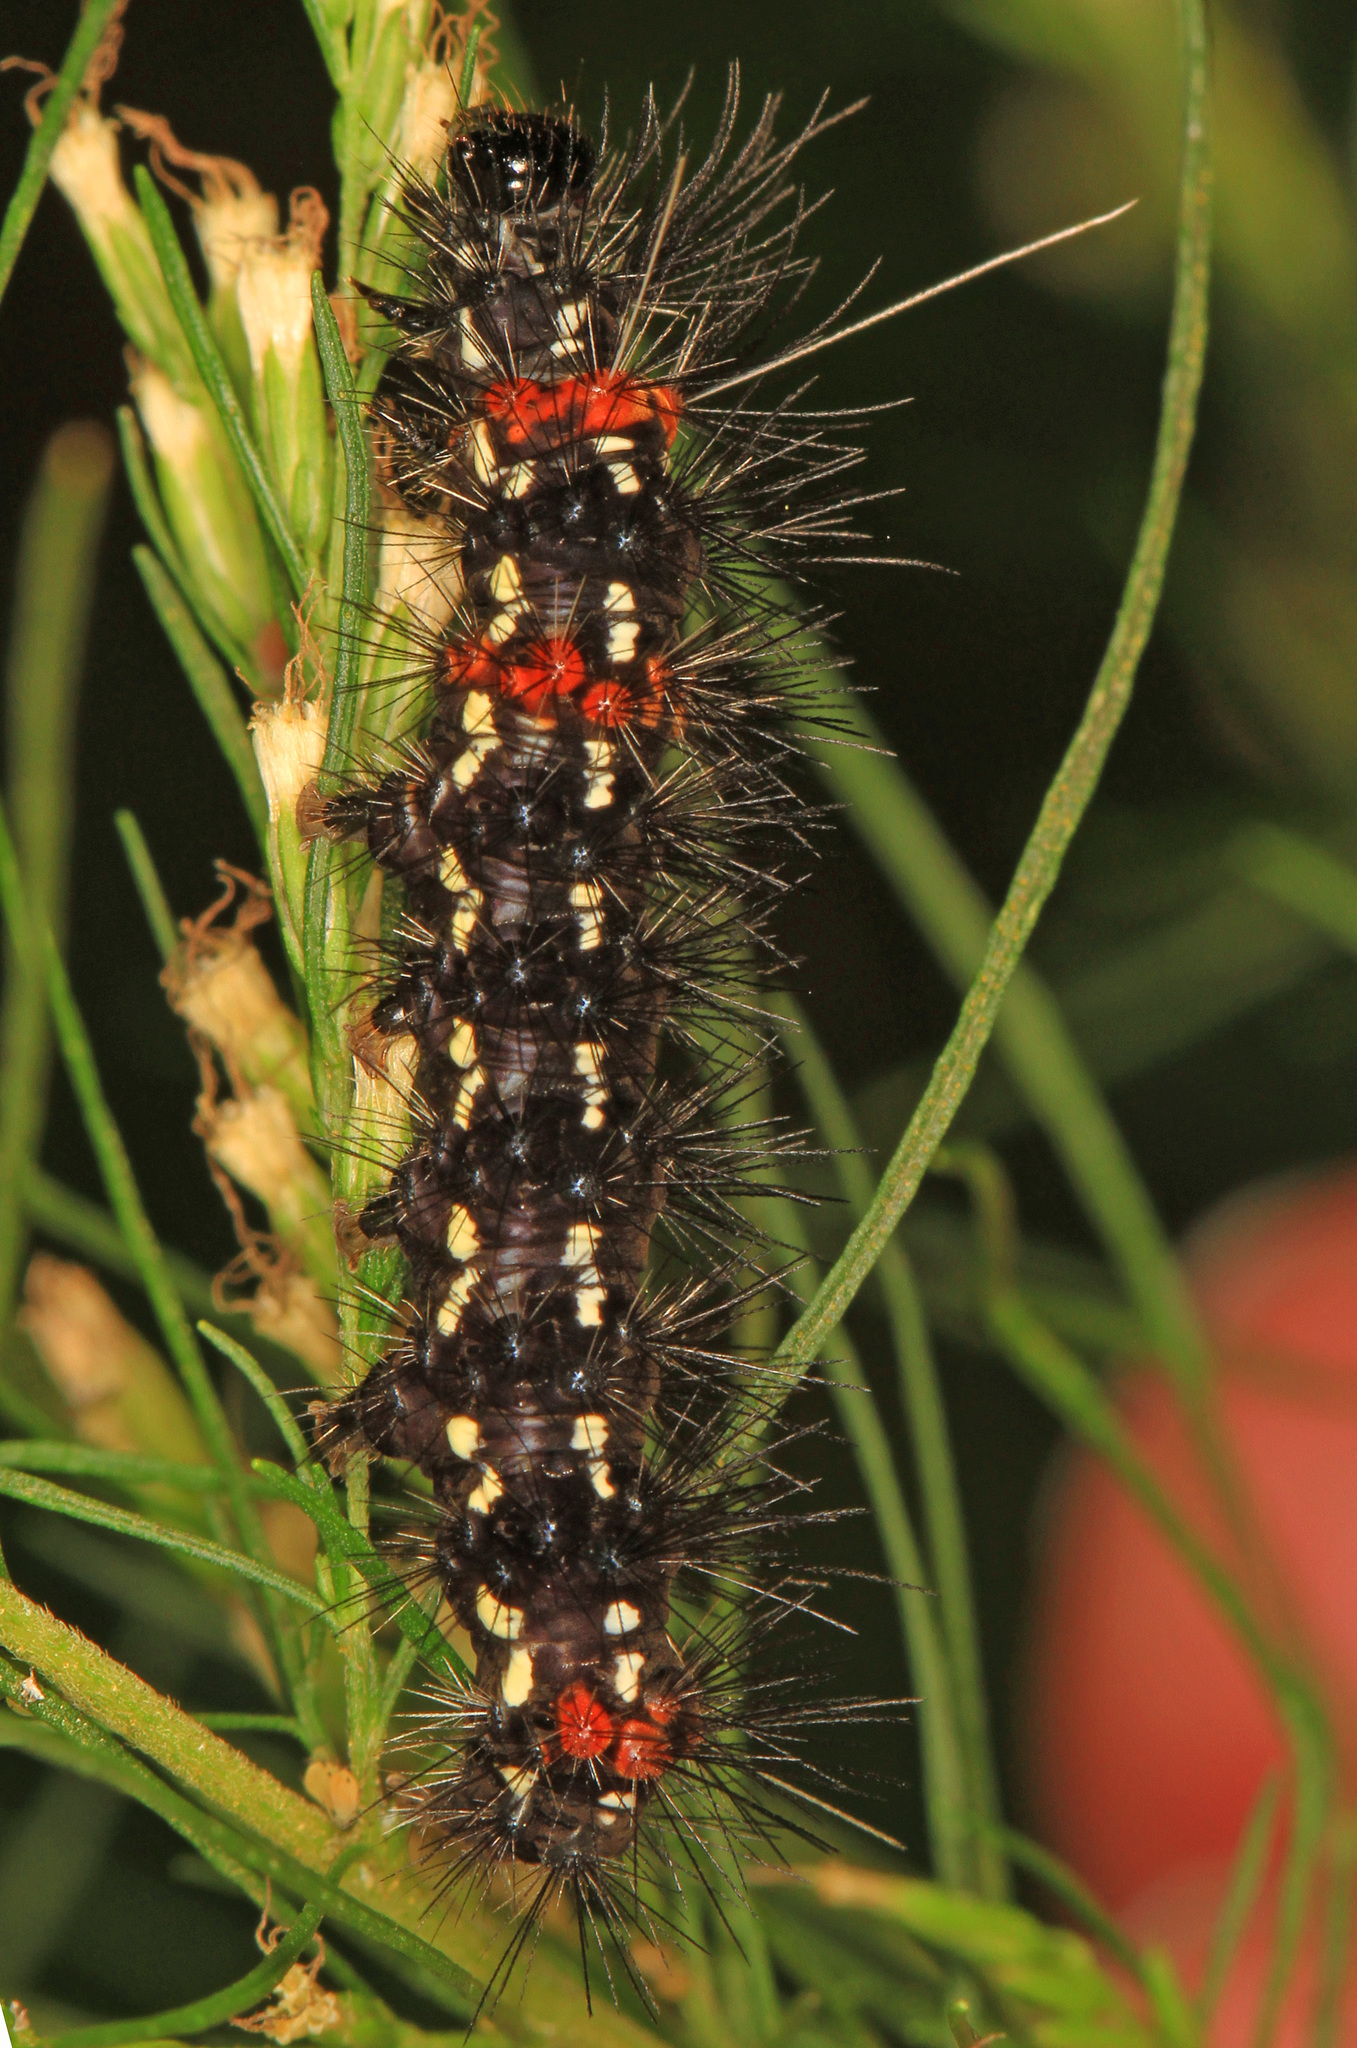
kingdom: Animalia
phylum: Arthropoda
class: Insecta
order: Lepidoptera
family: Erebidae
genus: Pareuchaetes
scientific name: Pareuchaetes insulata
